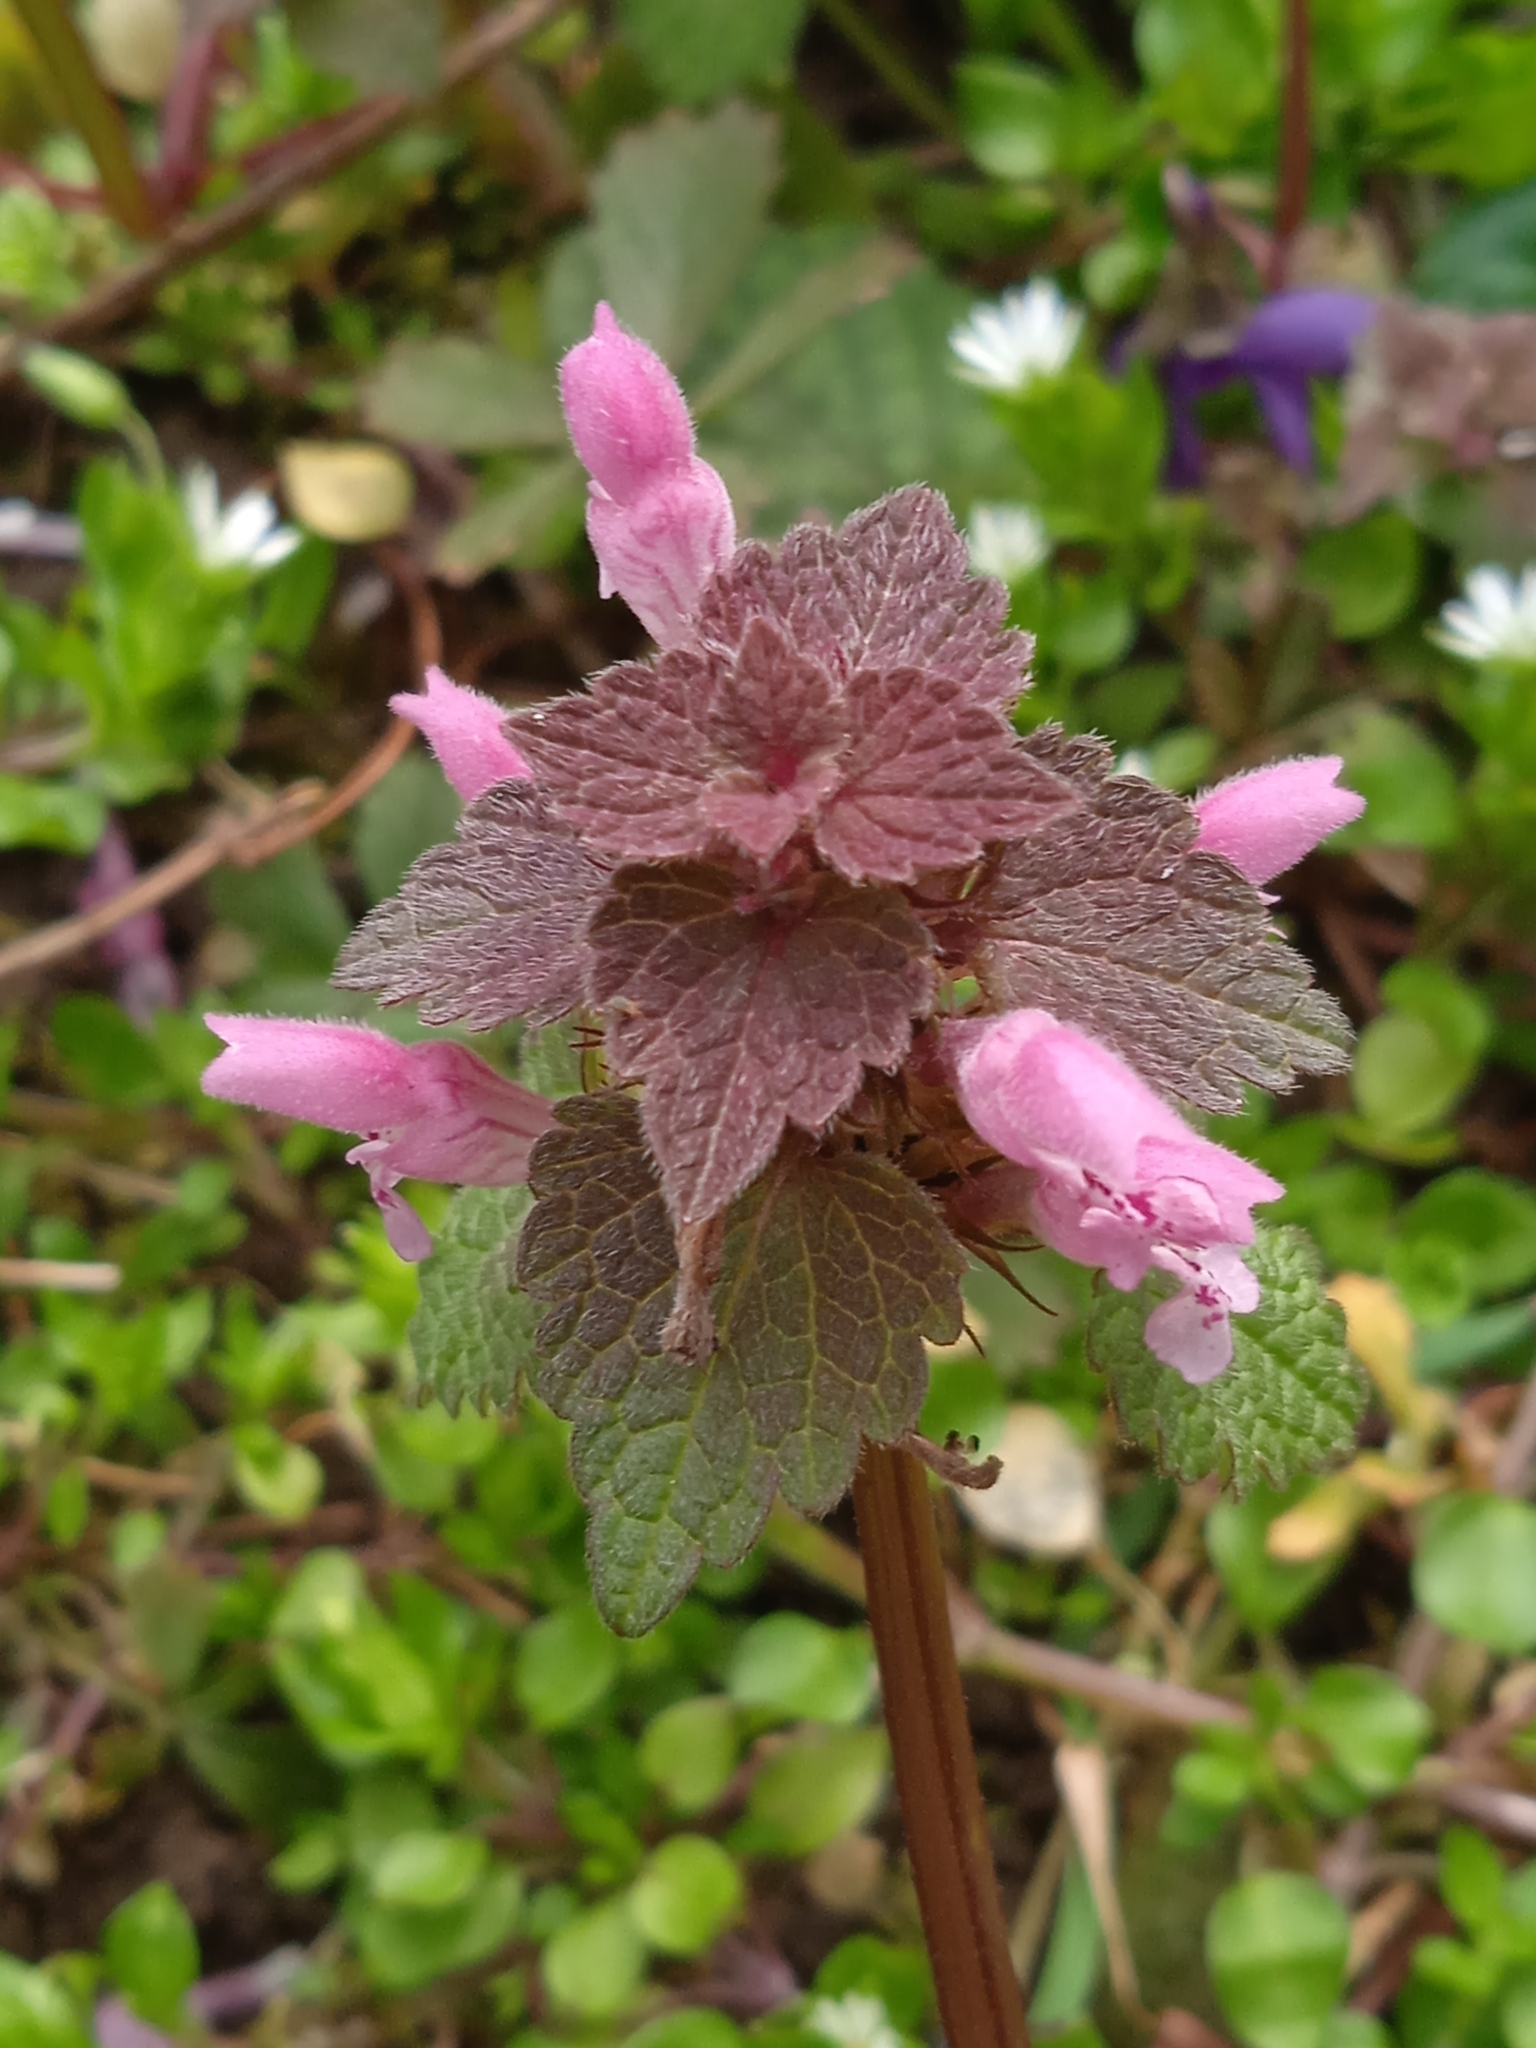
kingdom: Plantae
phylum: Tracheophyta
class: Magnoliopsida
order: Lamiales
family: Lamiaceae
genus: Lamium
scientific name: Lamium purpureum
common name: Red dead-nettle
